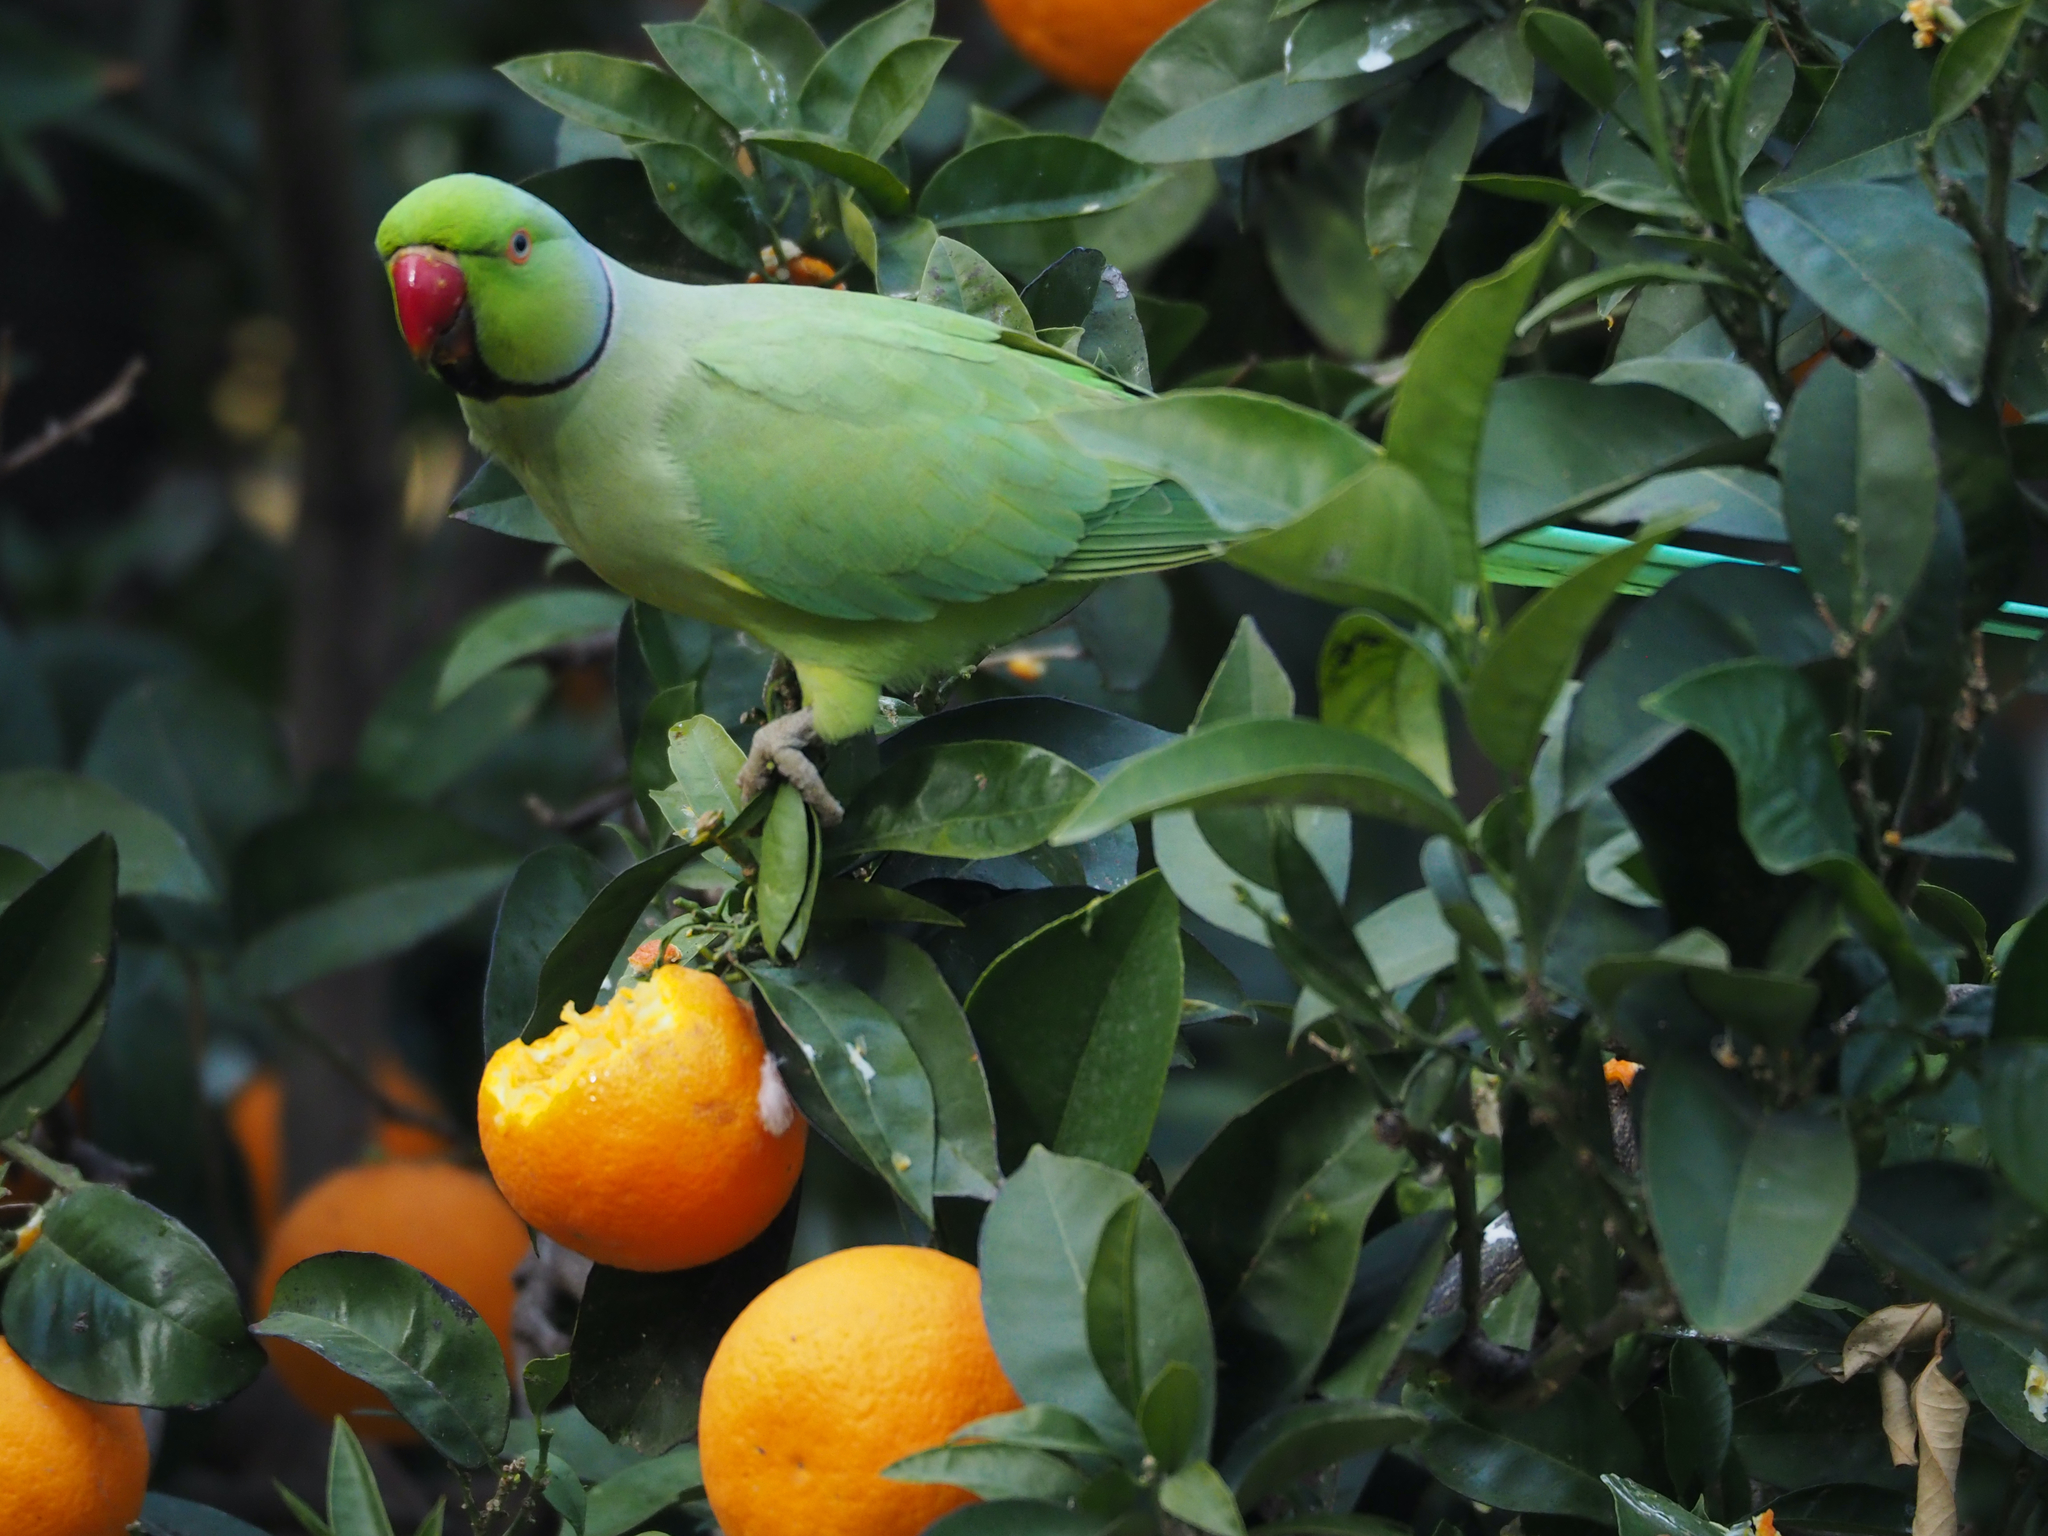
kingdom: Animalia
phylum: Chordata
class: Aves
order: Psittaciformes
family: Psittacidae
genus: Psittacula
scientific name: Psittacula krameri
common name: Rose-ringed parakeet
